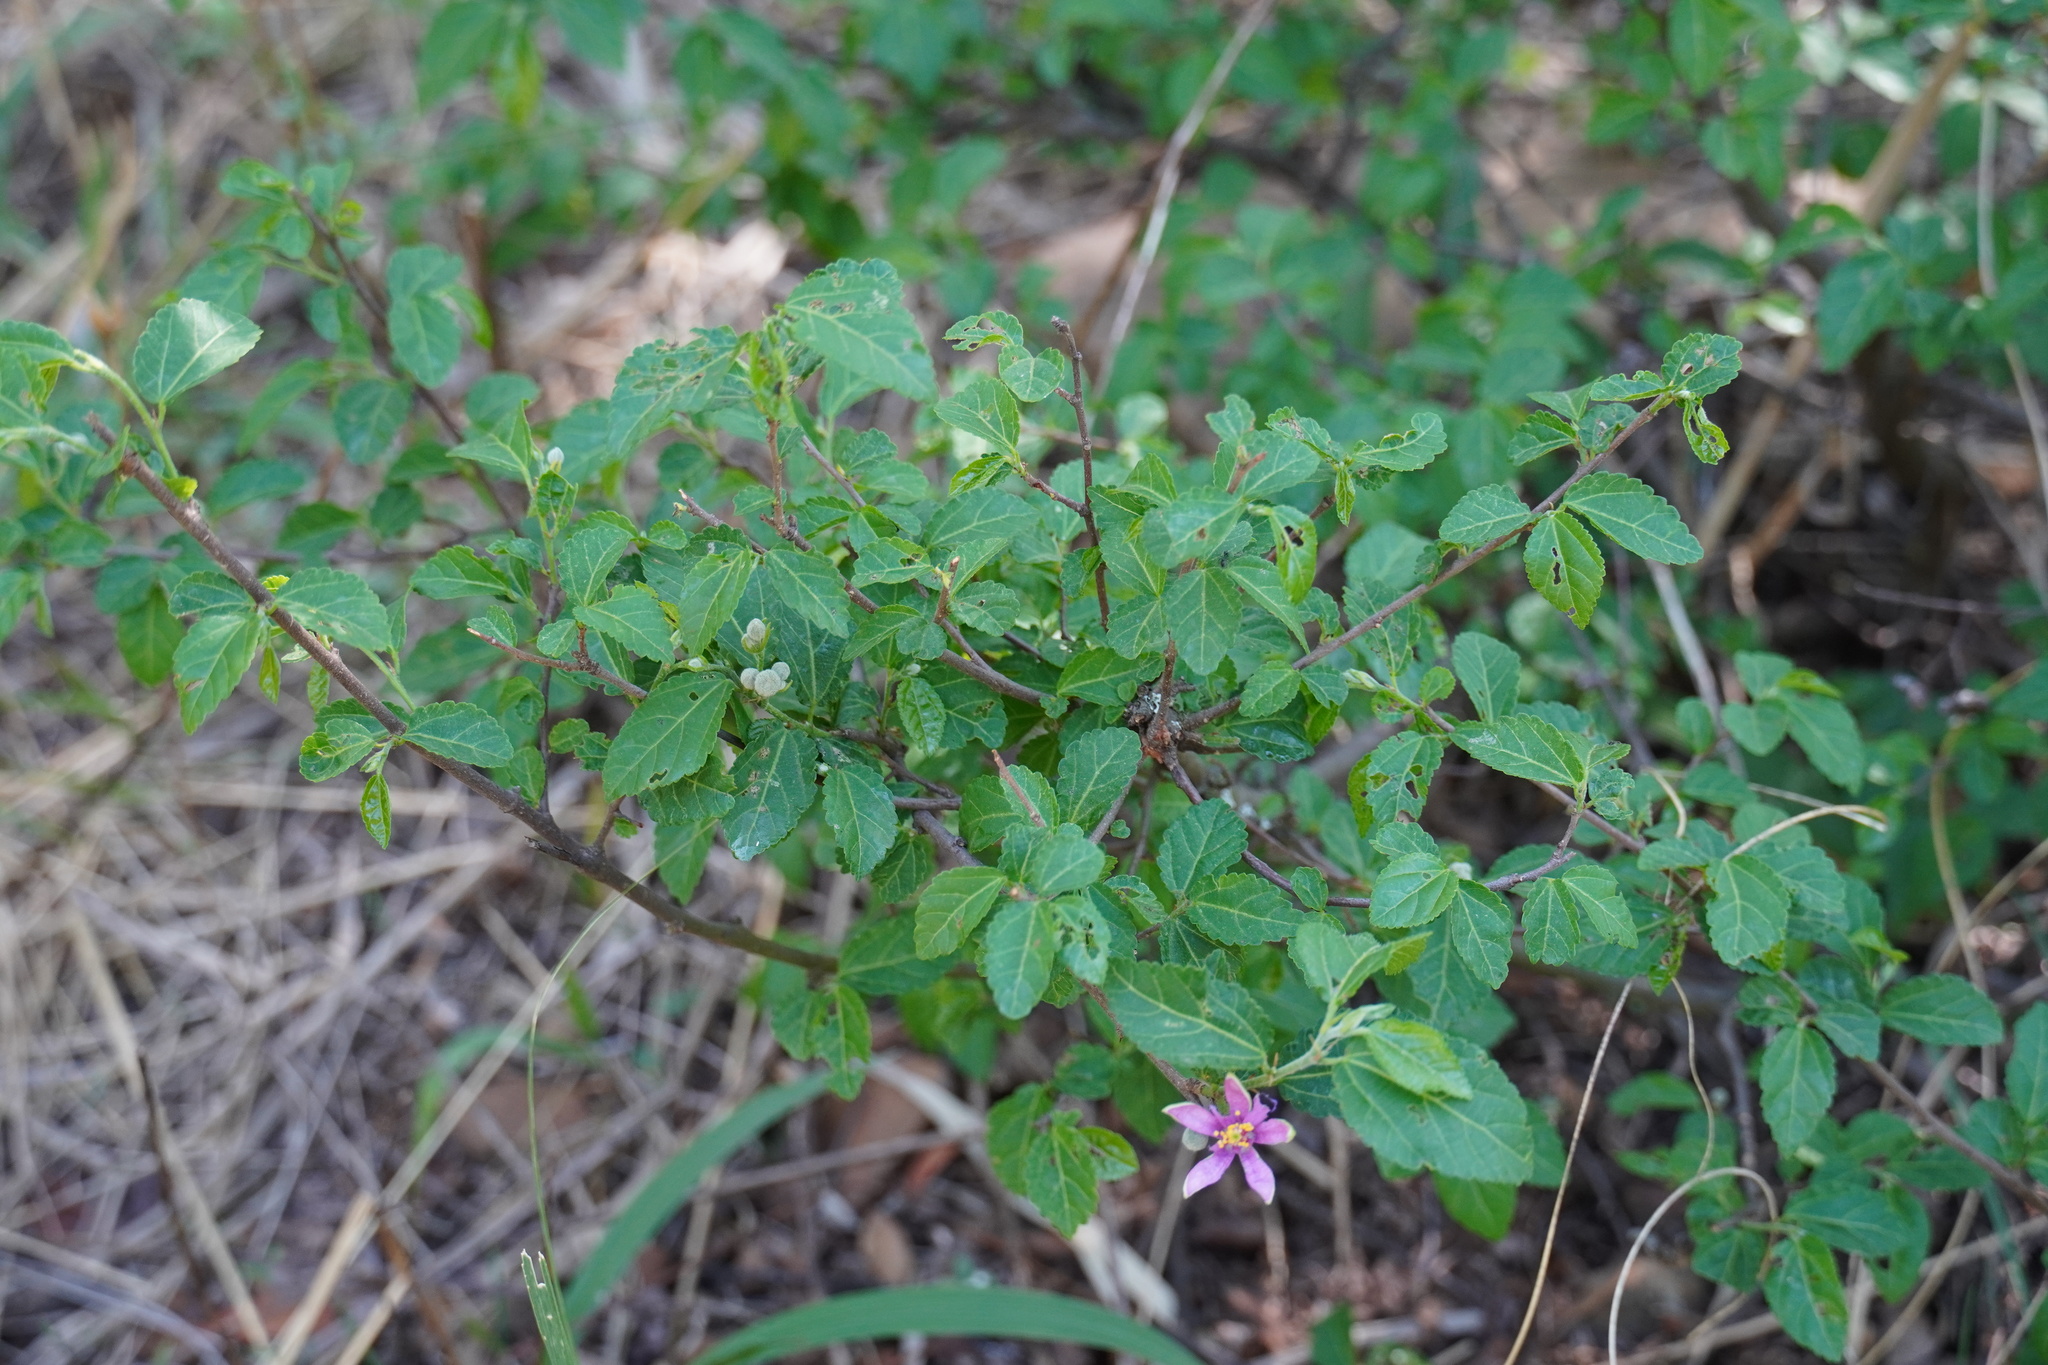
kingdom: Plantae
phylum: Tracheophyta
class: Magnoliopsida
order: Malvales
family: Malvaceae
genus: Grewia
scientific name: Grewia occidentalis
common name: Crossberry
